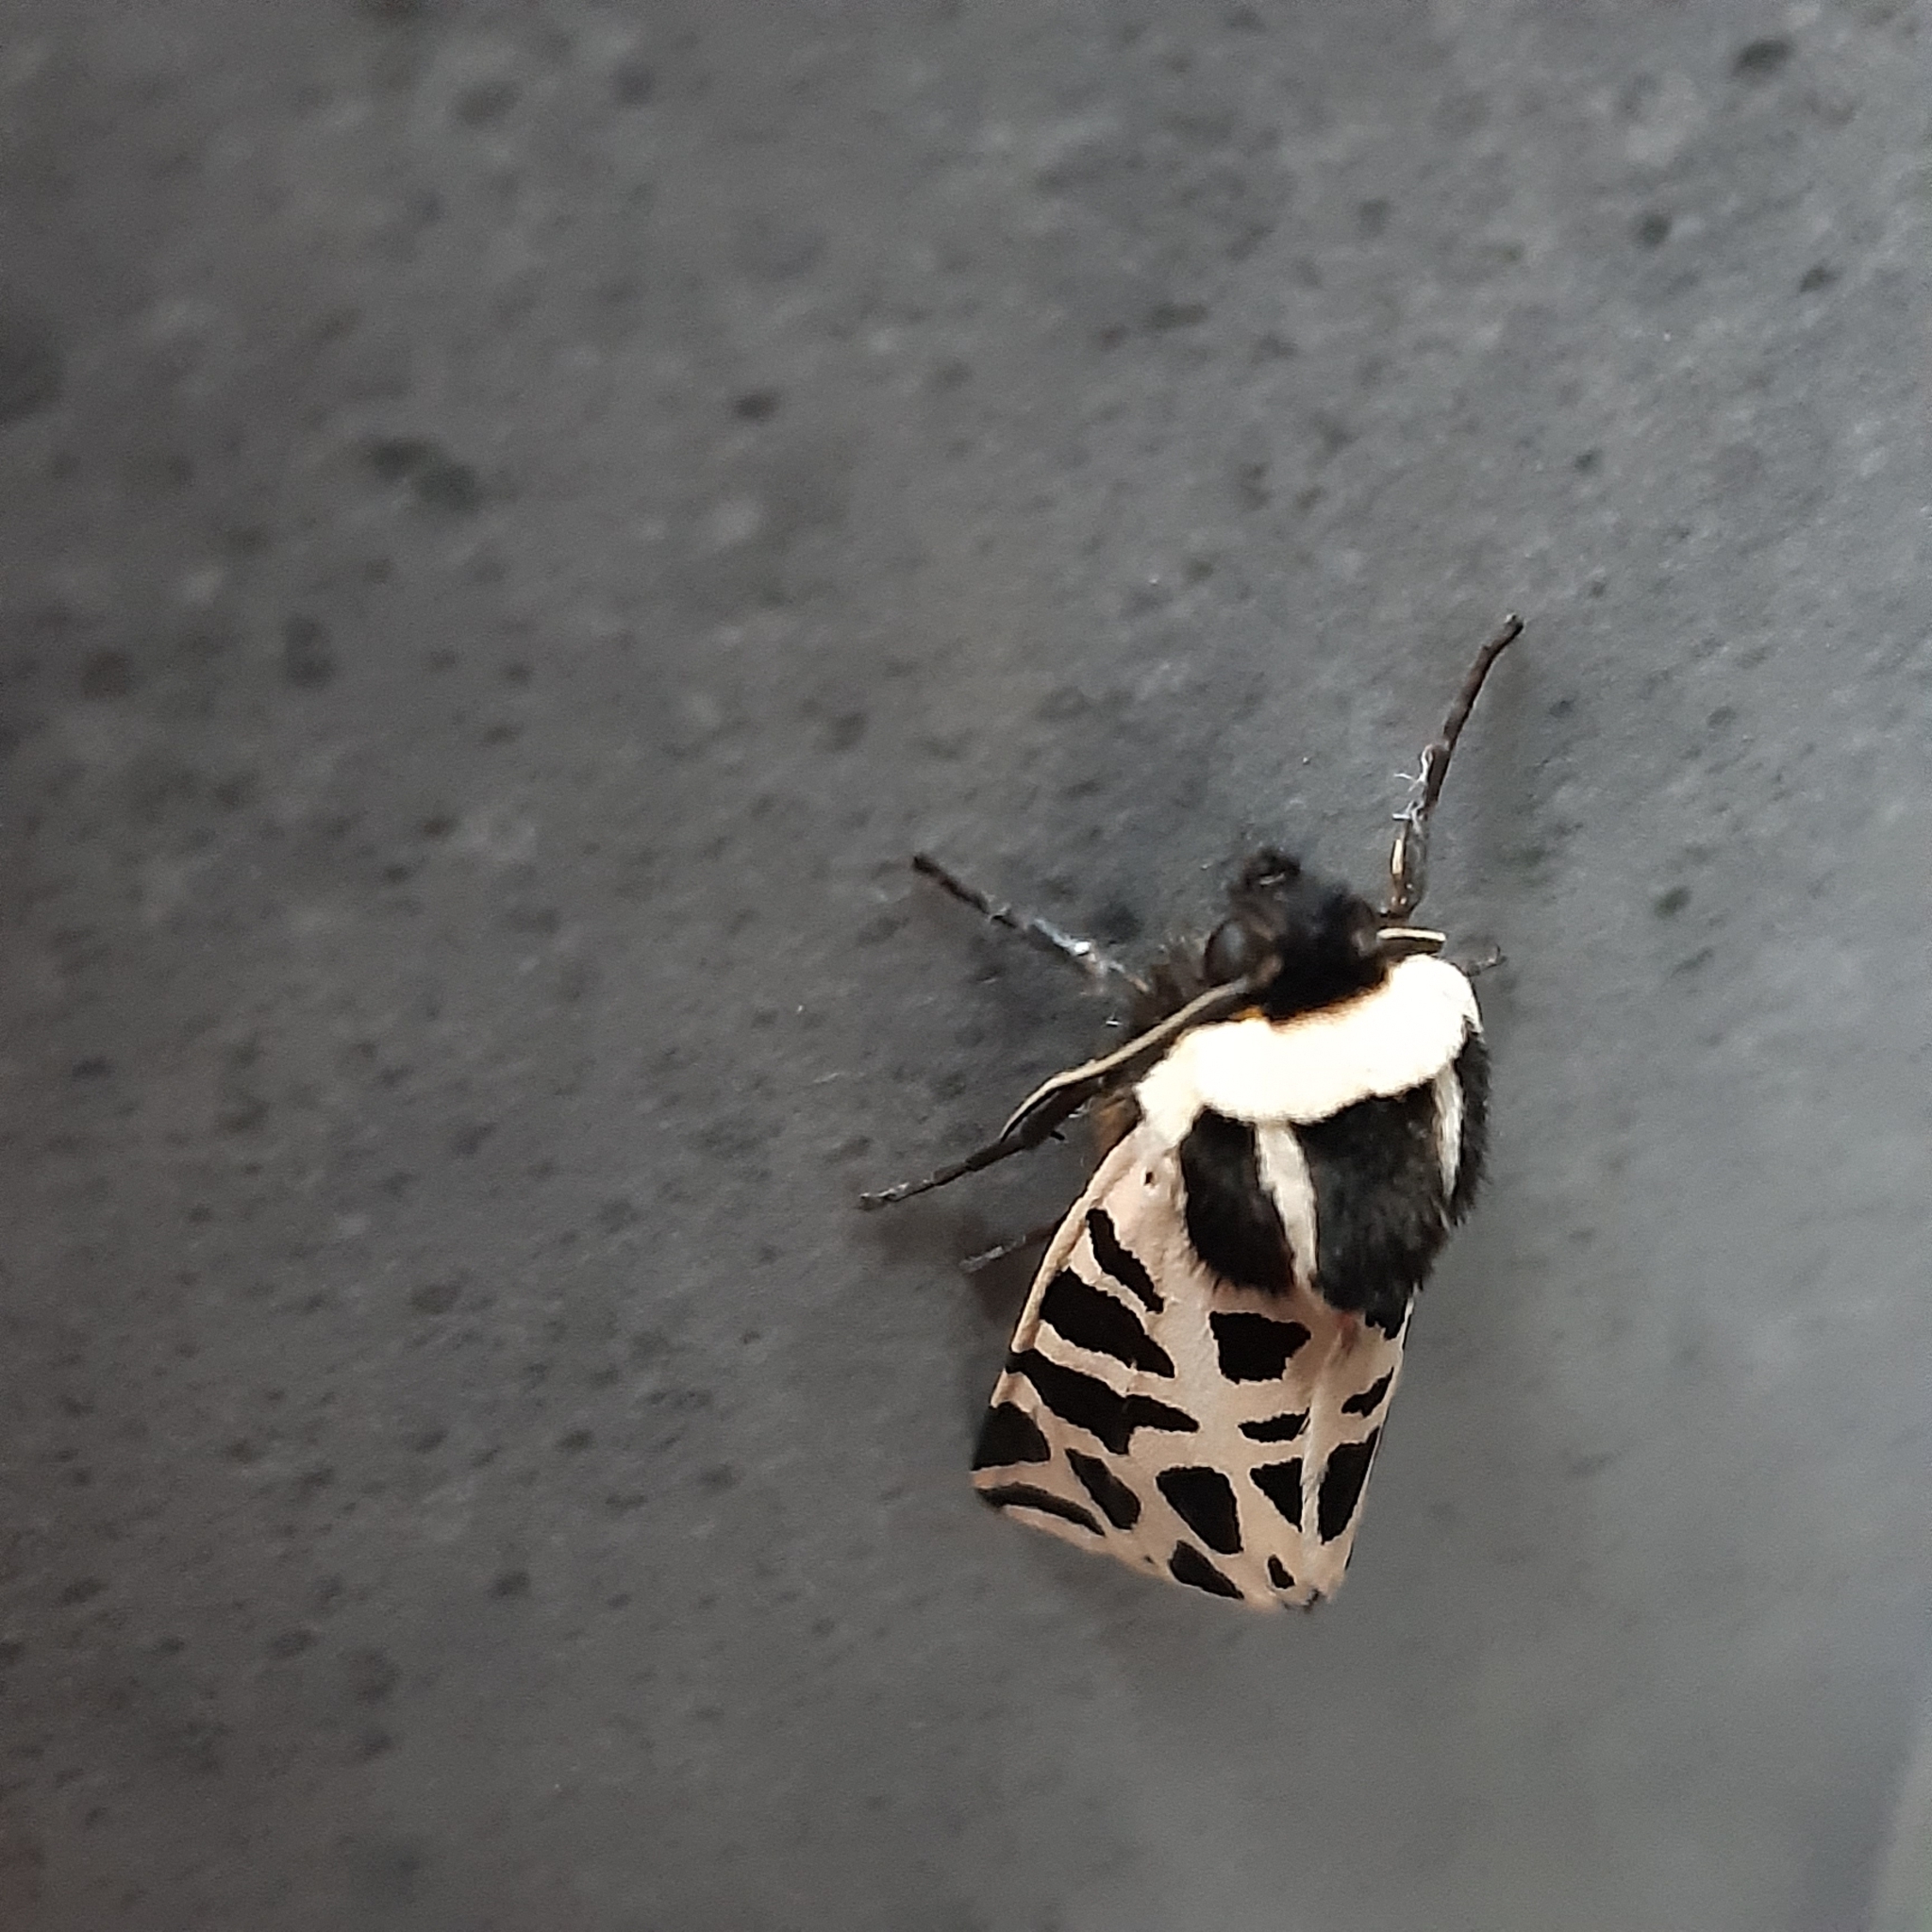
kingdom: Animalia
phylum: Arthropoda
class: Insecta
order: Lepidoptera
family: Erebidae
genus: Cymbalophora
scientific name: Cymbalophora pudica
